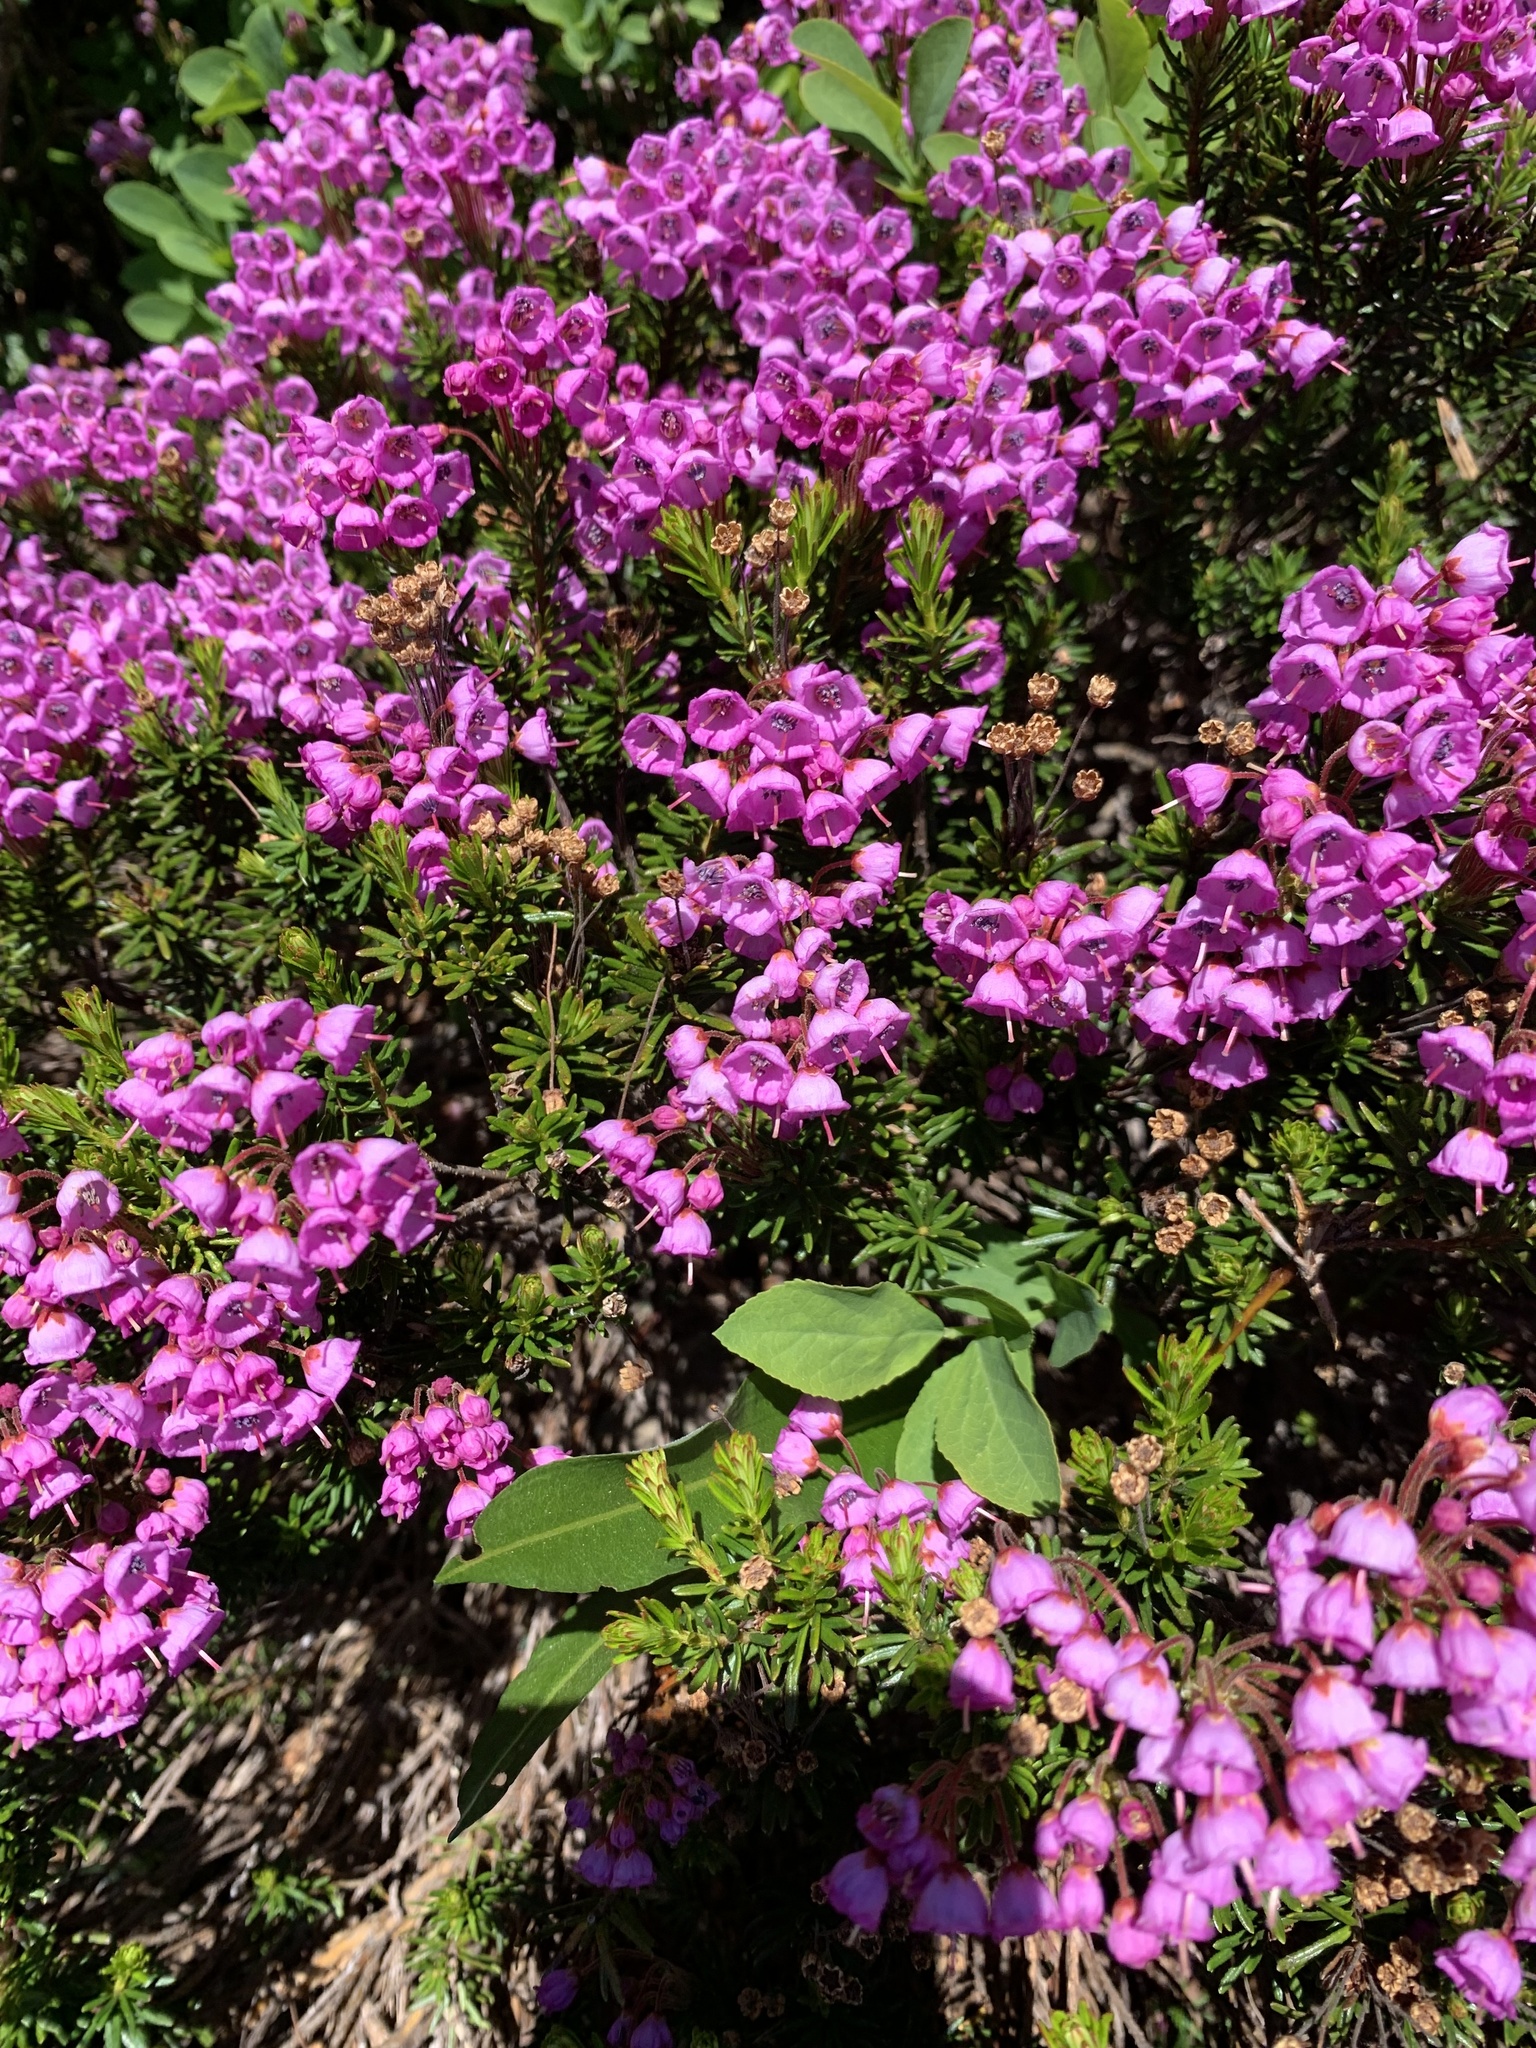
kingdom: Plantae
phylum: Tracheophyta
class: Magnoliopsida
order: Ericales
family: Ericaceae
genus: Phyllodoce
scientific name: Phyllodoce empetriformis
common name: Pink mountain heather
